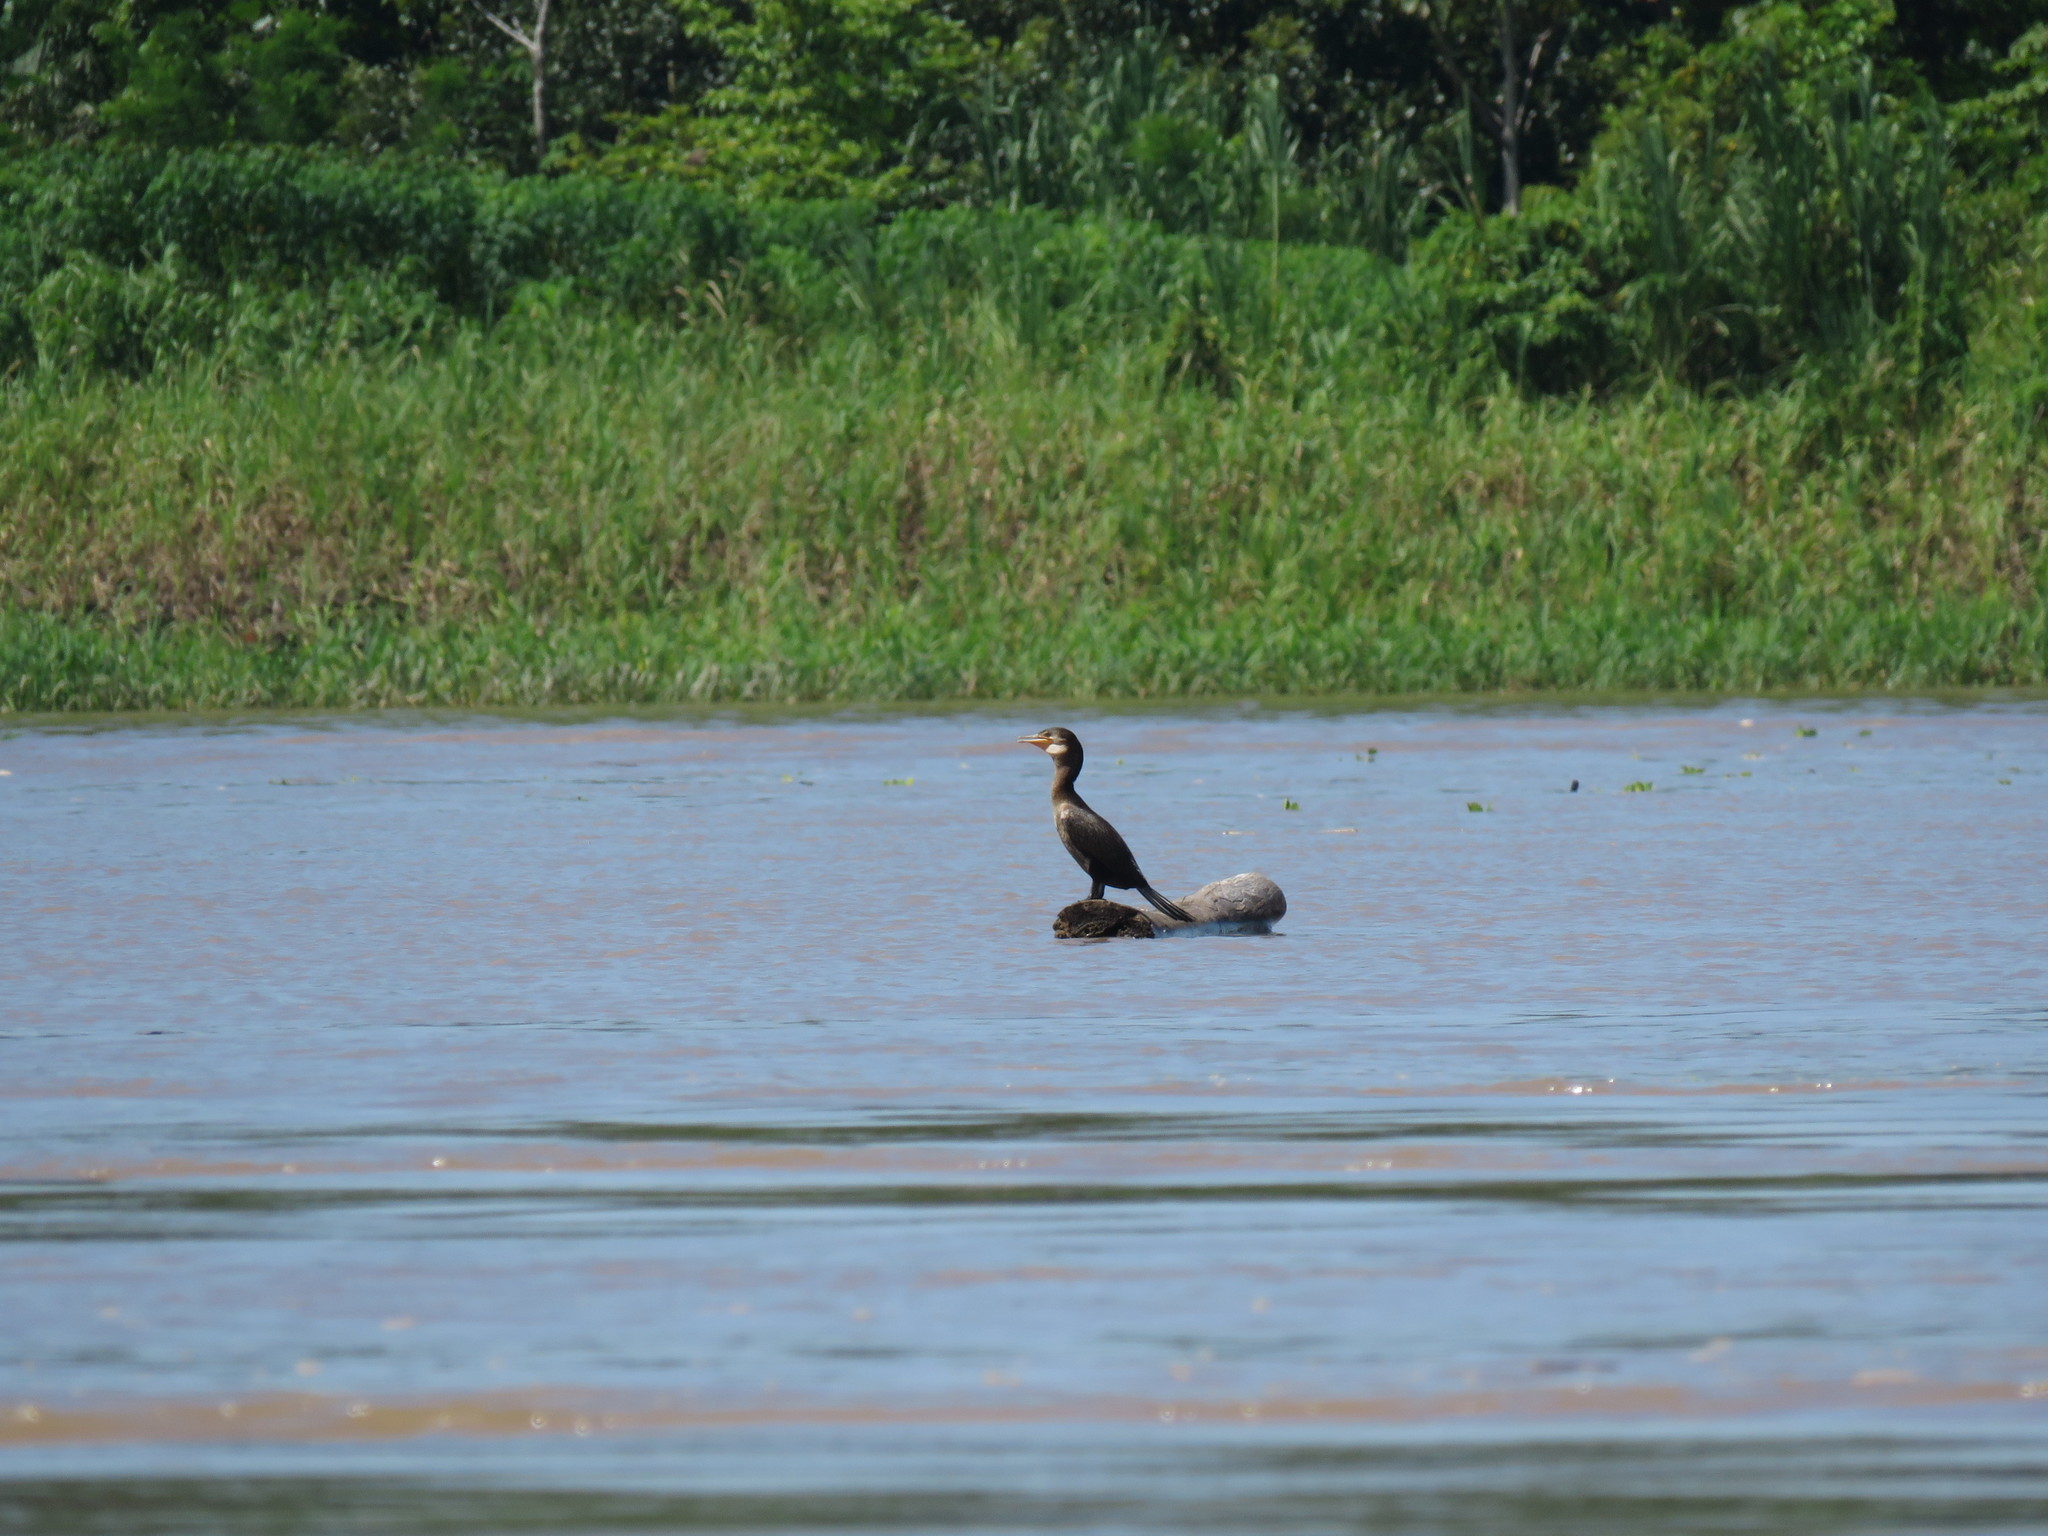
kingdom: Animalia
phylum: Chordata
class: Aves
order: Suliformes
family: Phalacrocoracidae
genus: Phalacrocorax
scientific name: Phalacrocorax brasilianus
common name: Neotropic cormorant
